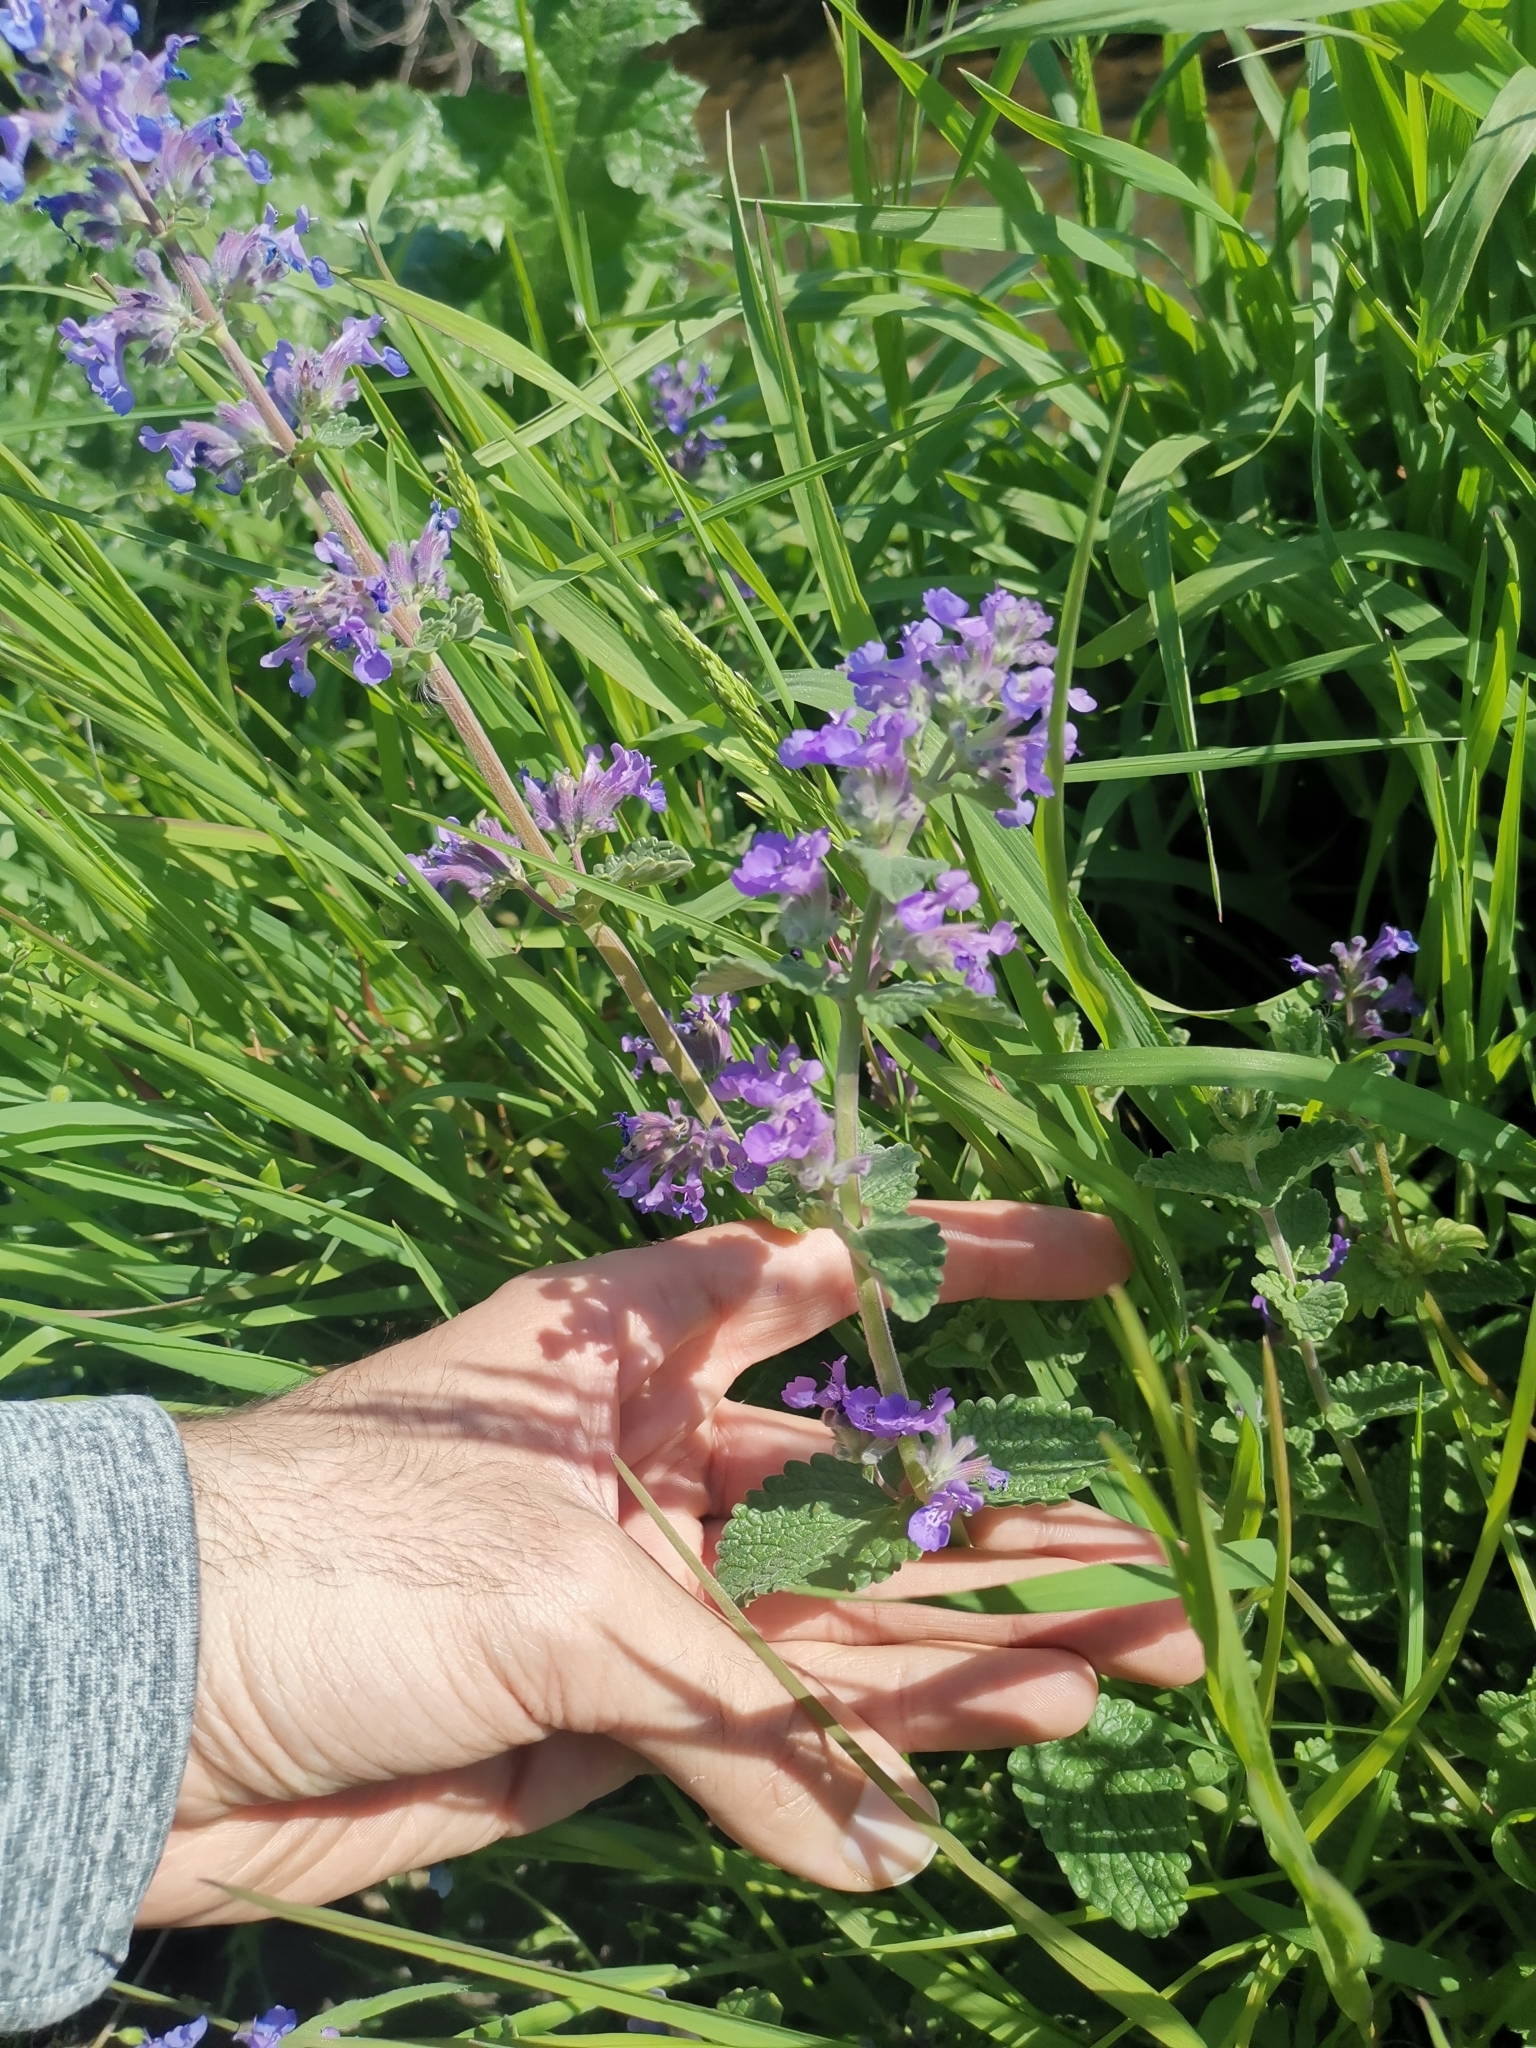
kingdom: Plantae
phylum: Tracheophyta
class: Magnoliopsida
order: Lamiales
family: Lamiaceae
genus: Nepeta
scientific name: Nepeta racemosa
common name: Raceme catnip
